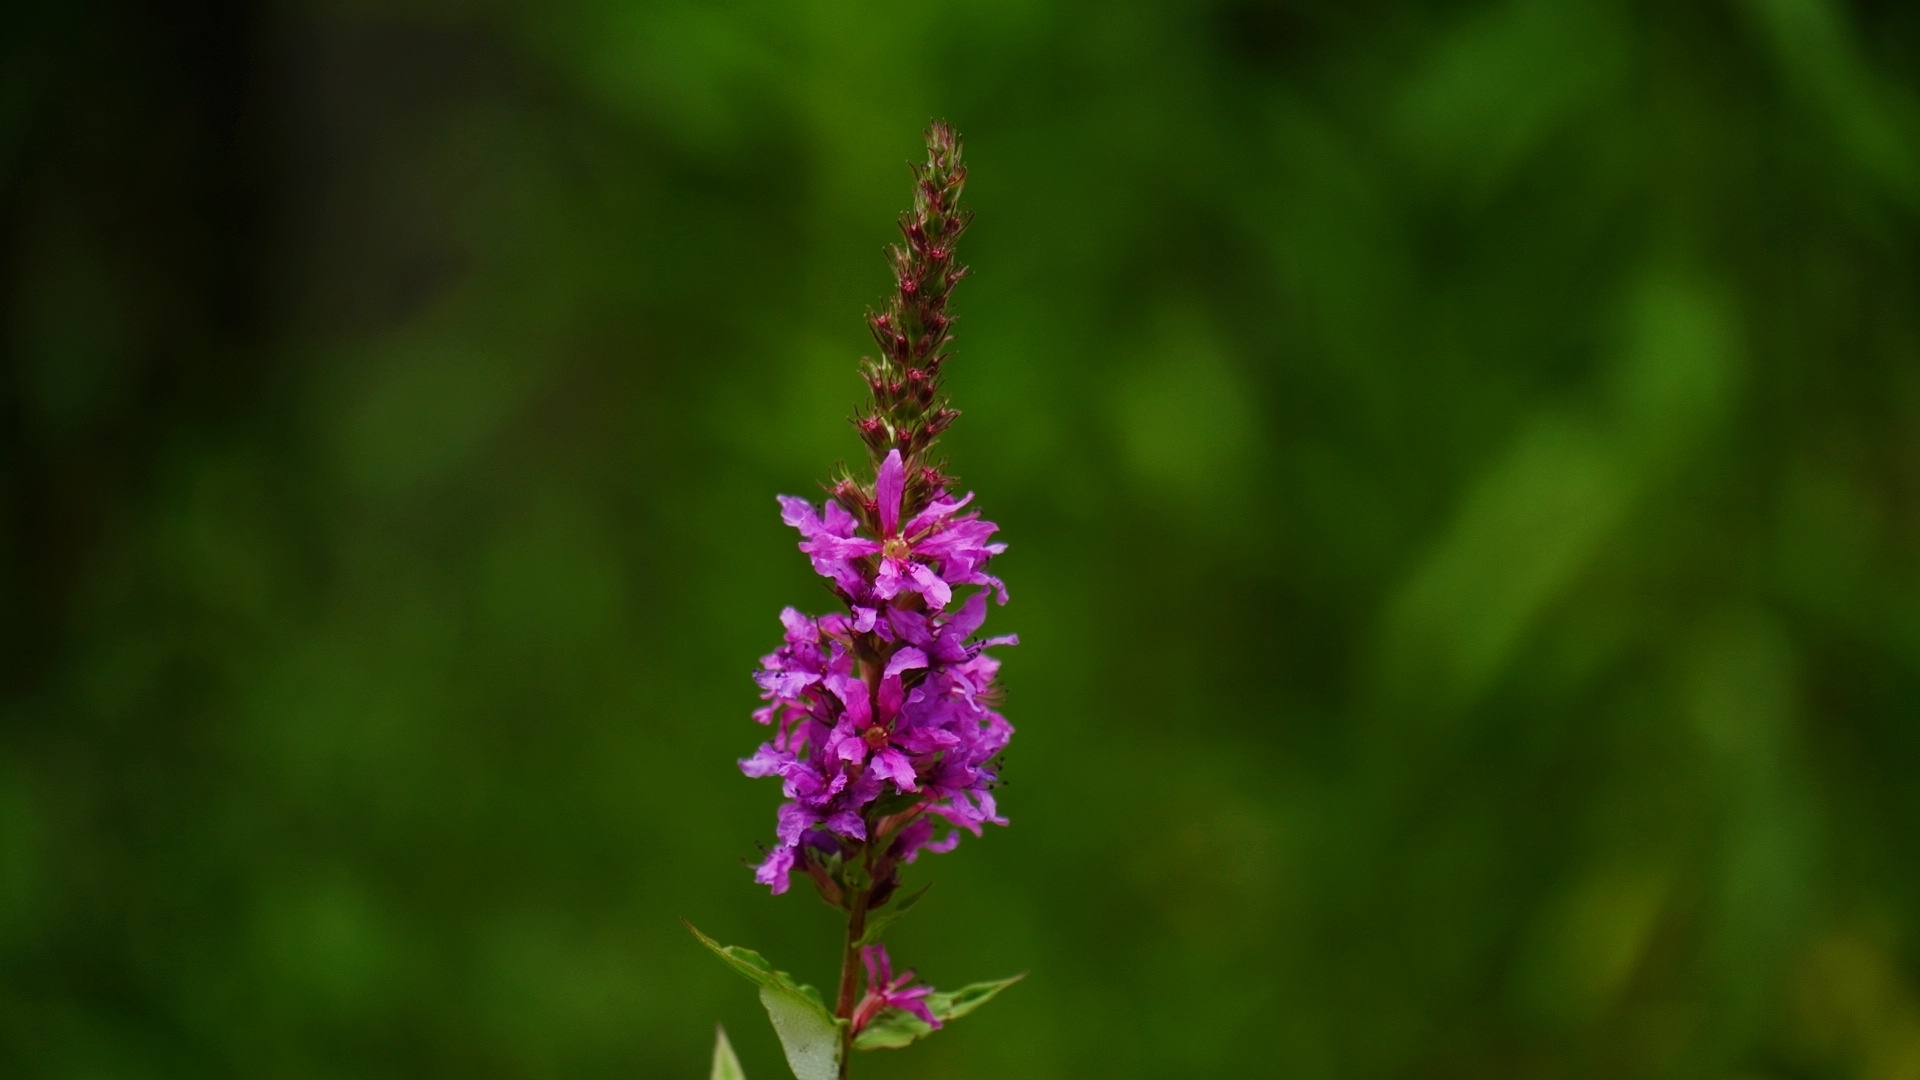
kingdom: Plantae
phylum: Tracheophyta
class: Magnoliopsida
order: Myrtales
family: Lythraceae
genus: Lythrum
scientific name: Lythrum salicaria
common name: Purple loosestrife
